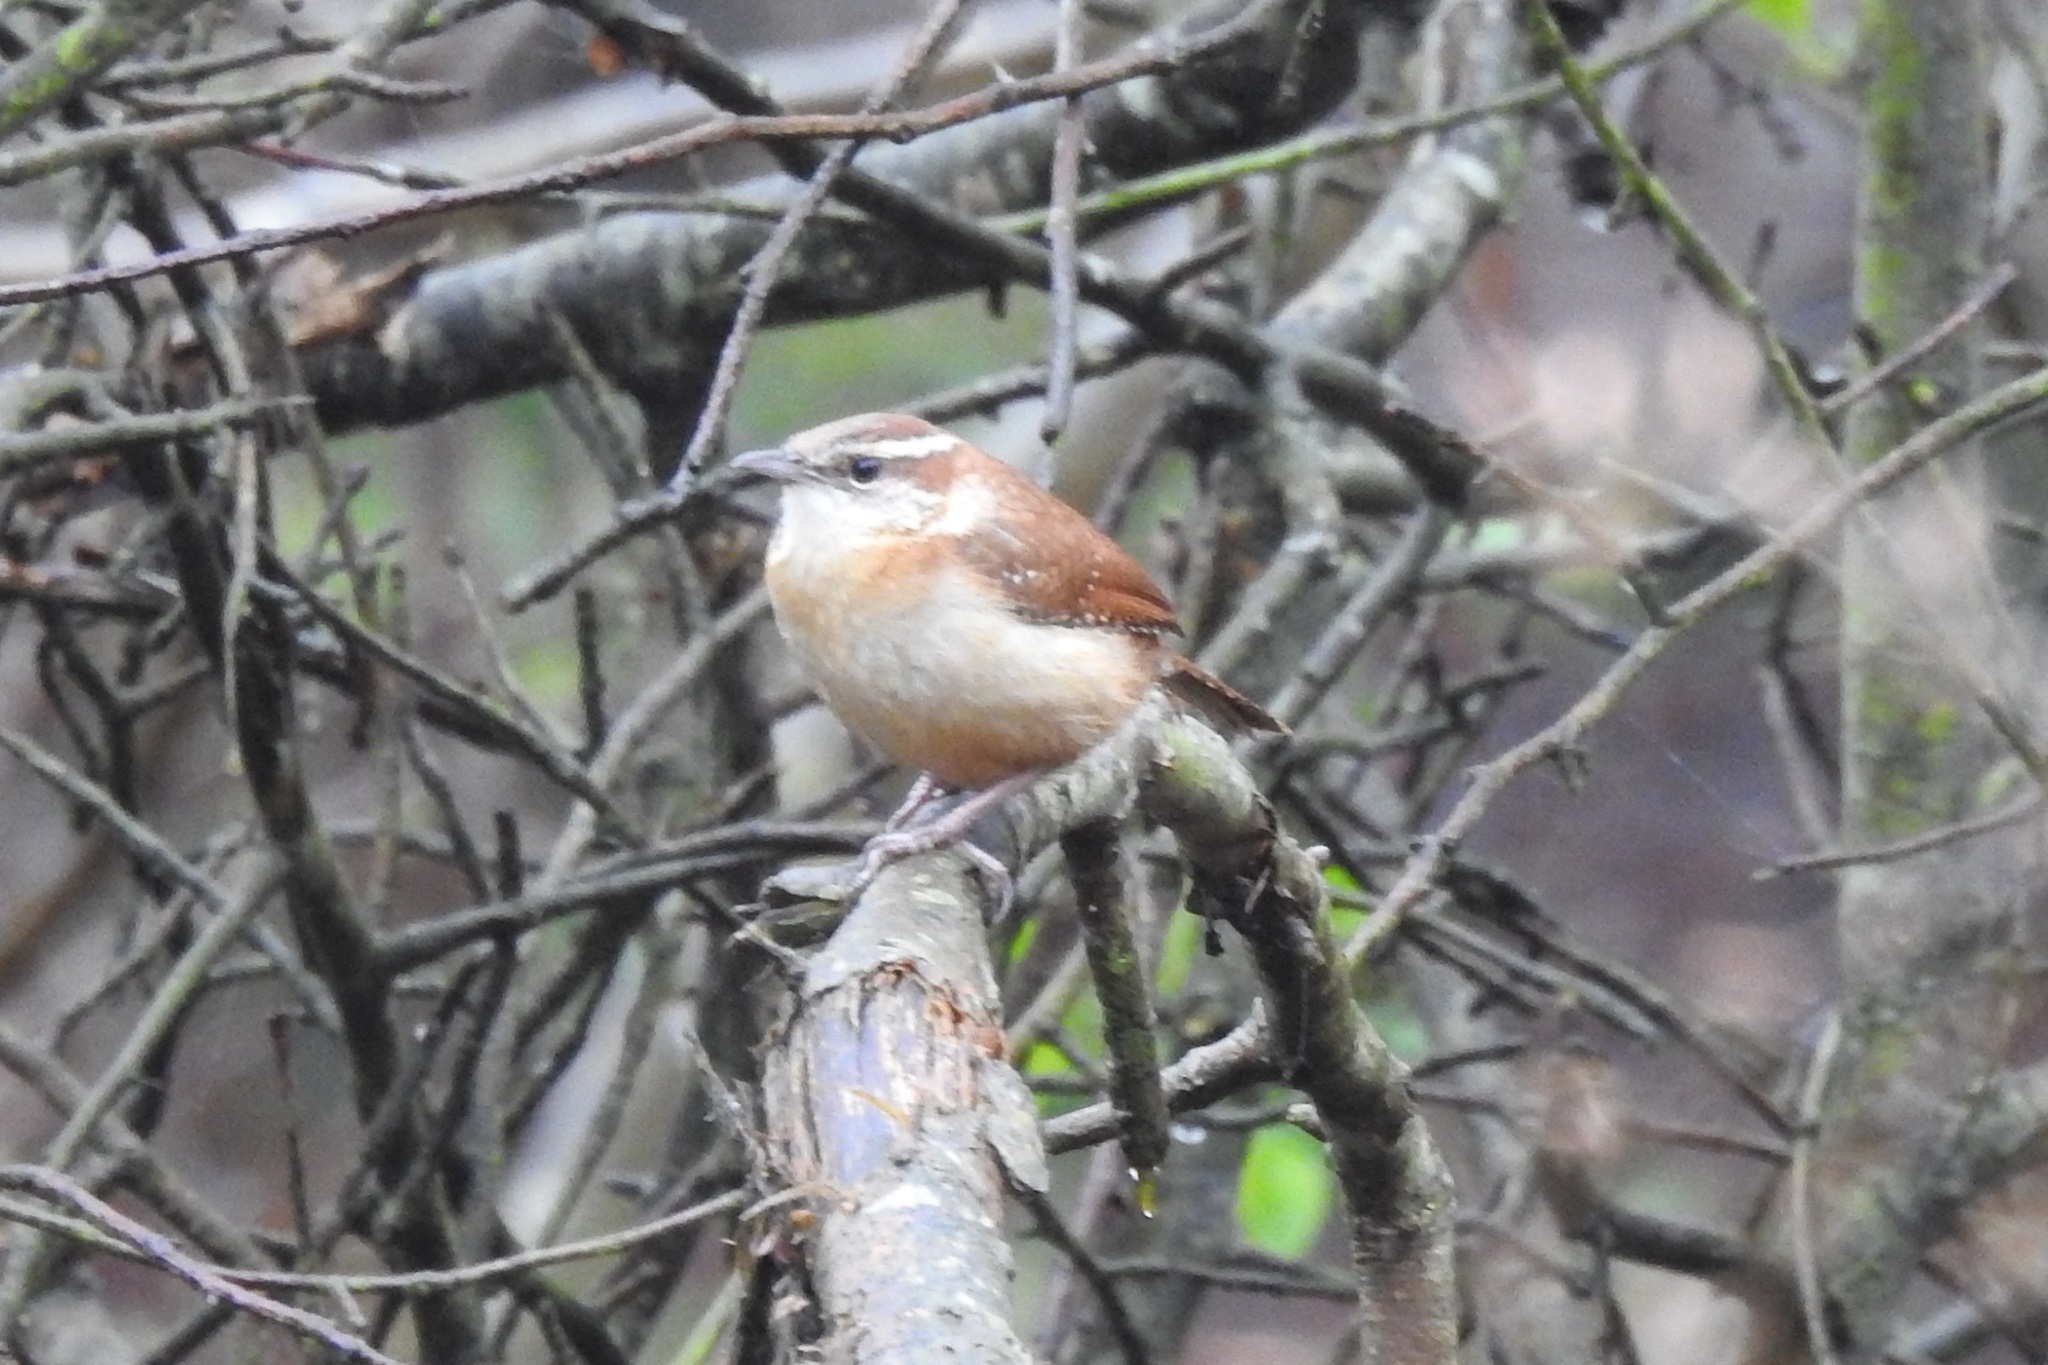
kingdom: Animalia
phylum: Chordata
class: Aves
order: Passeriformes
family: Troglodytidae
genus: Thryothorus
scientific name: Thryothorus ludovicianus
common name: Carolina wren
